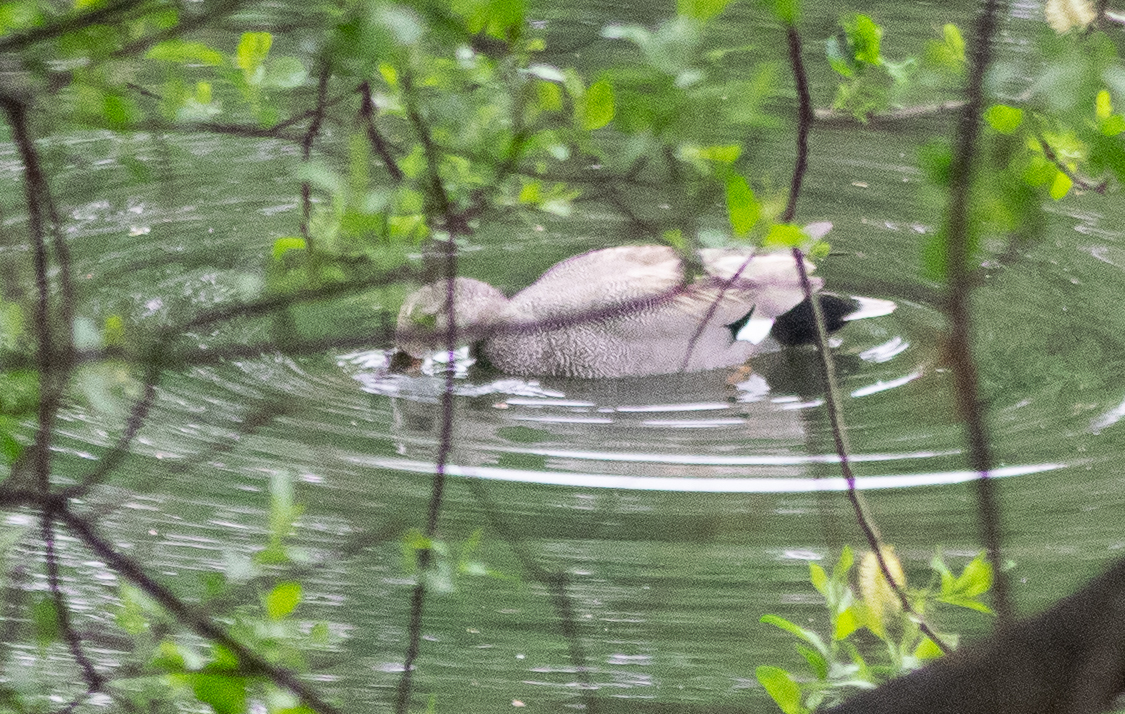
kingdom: Animalia
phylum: Chordata
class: Aves
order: Anseriformes
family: Anatidae
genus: Mareca
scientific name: Mareca strepera
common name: Gadwall
